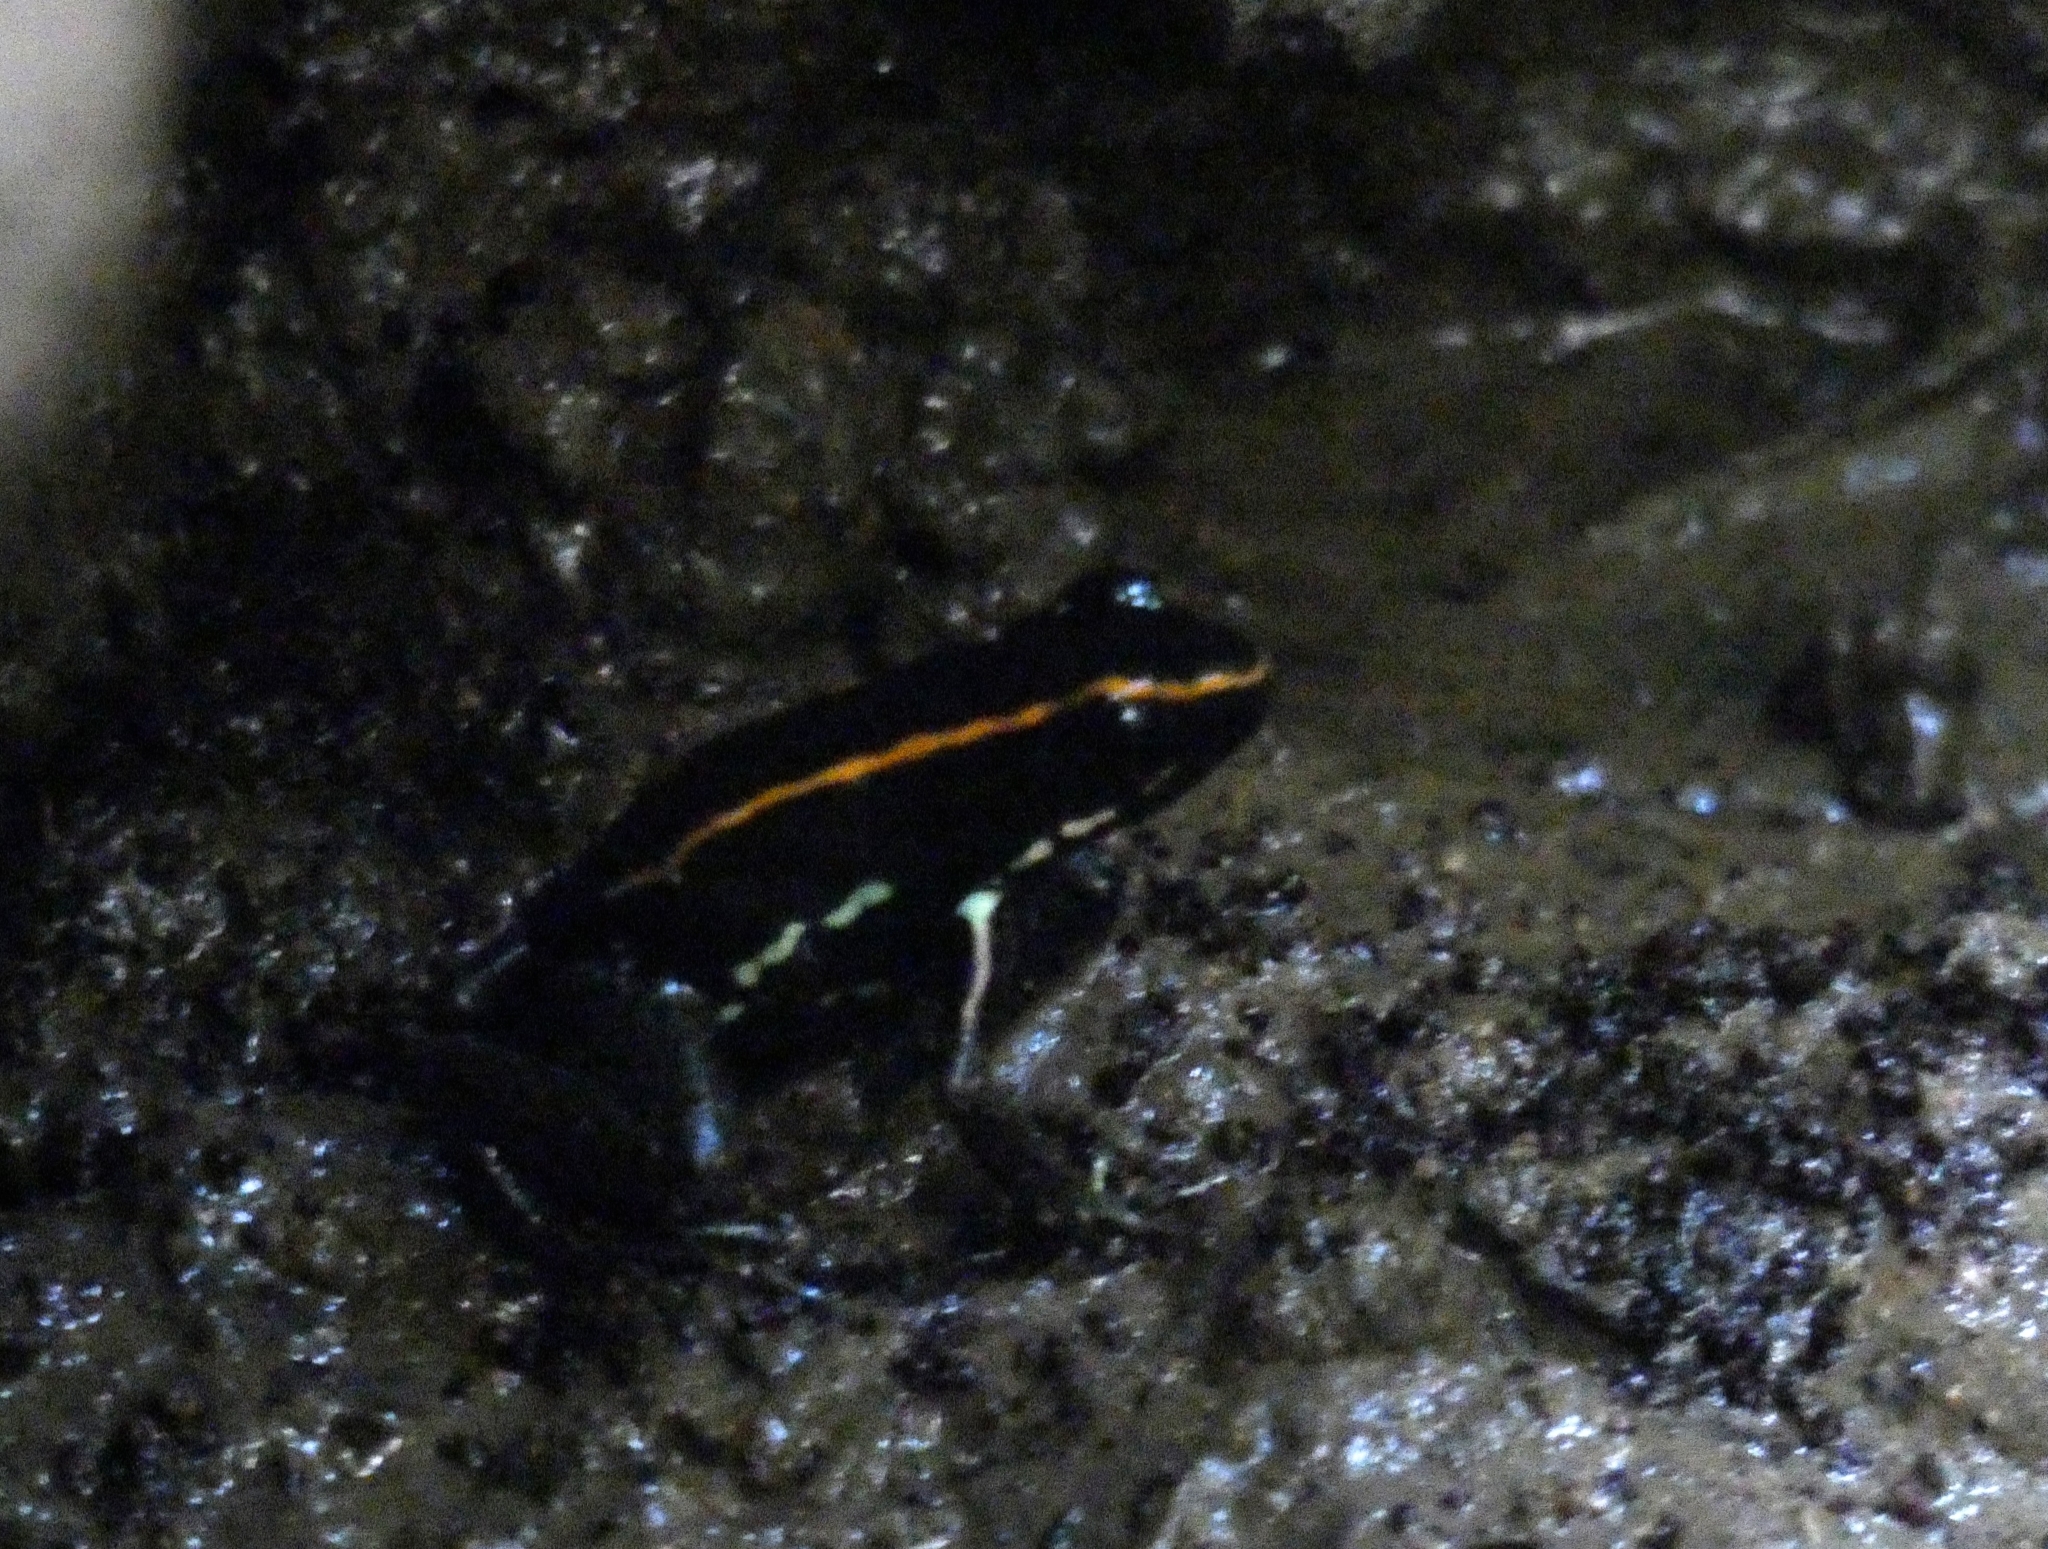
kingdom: Animalia
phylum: Chordata
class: Amphibia
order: Anura
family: Dendrobatidae
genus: Phyllobates
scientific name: Phyllobates vittatus
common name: Golfodulcean poison frog
